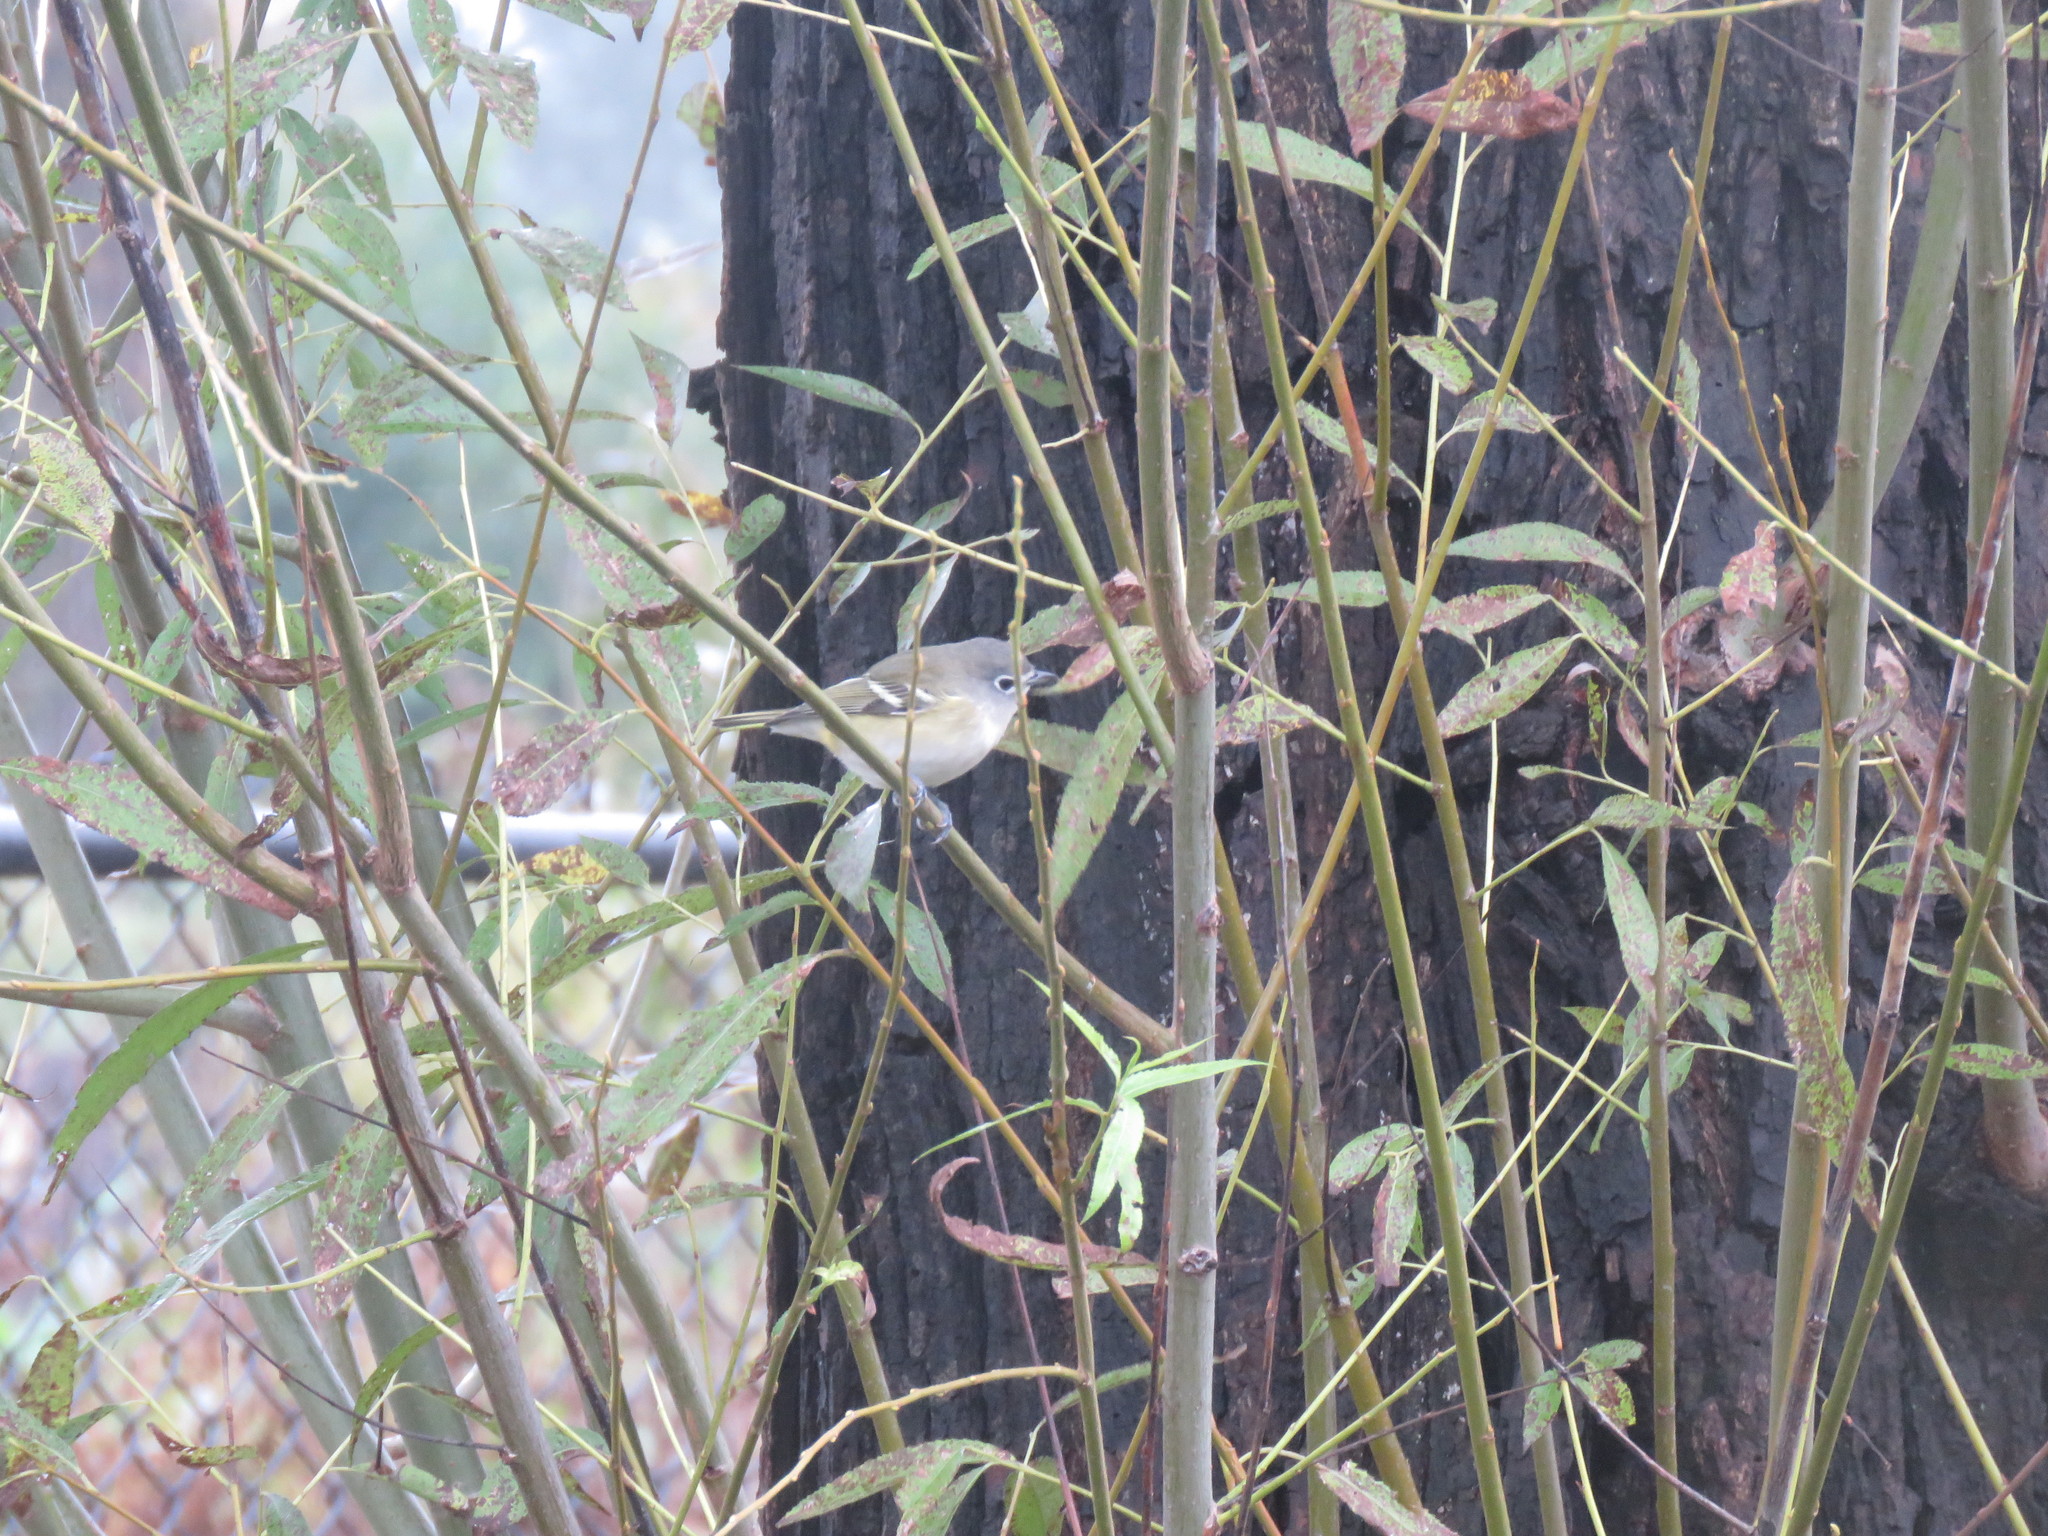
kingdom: Animalia
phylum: Chordata
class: Aves
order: Passeriformes
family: Vireonidae
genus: Vireo
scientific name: Vireo solitarius
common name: Blue-headed vireo
